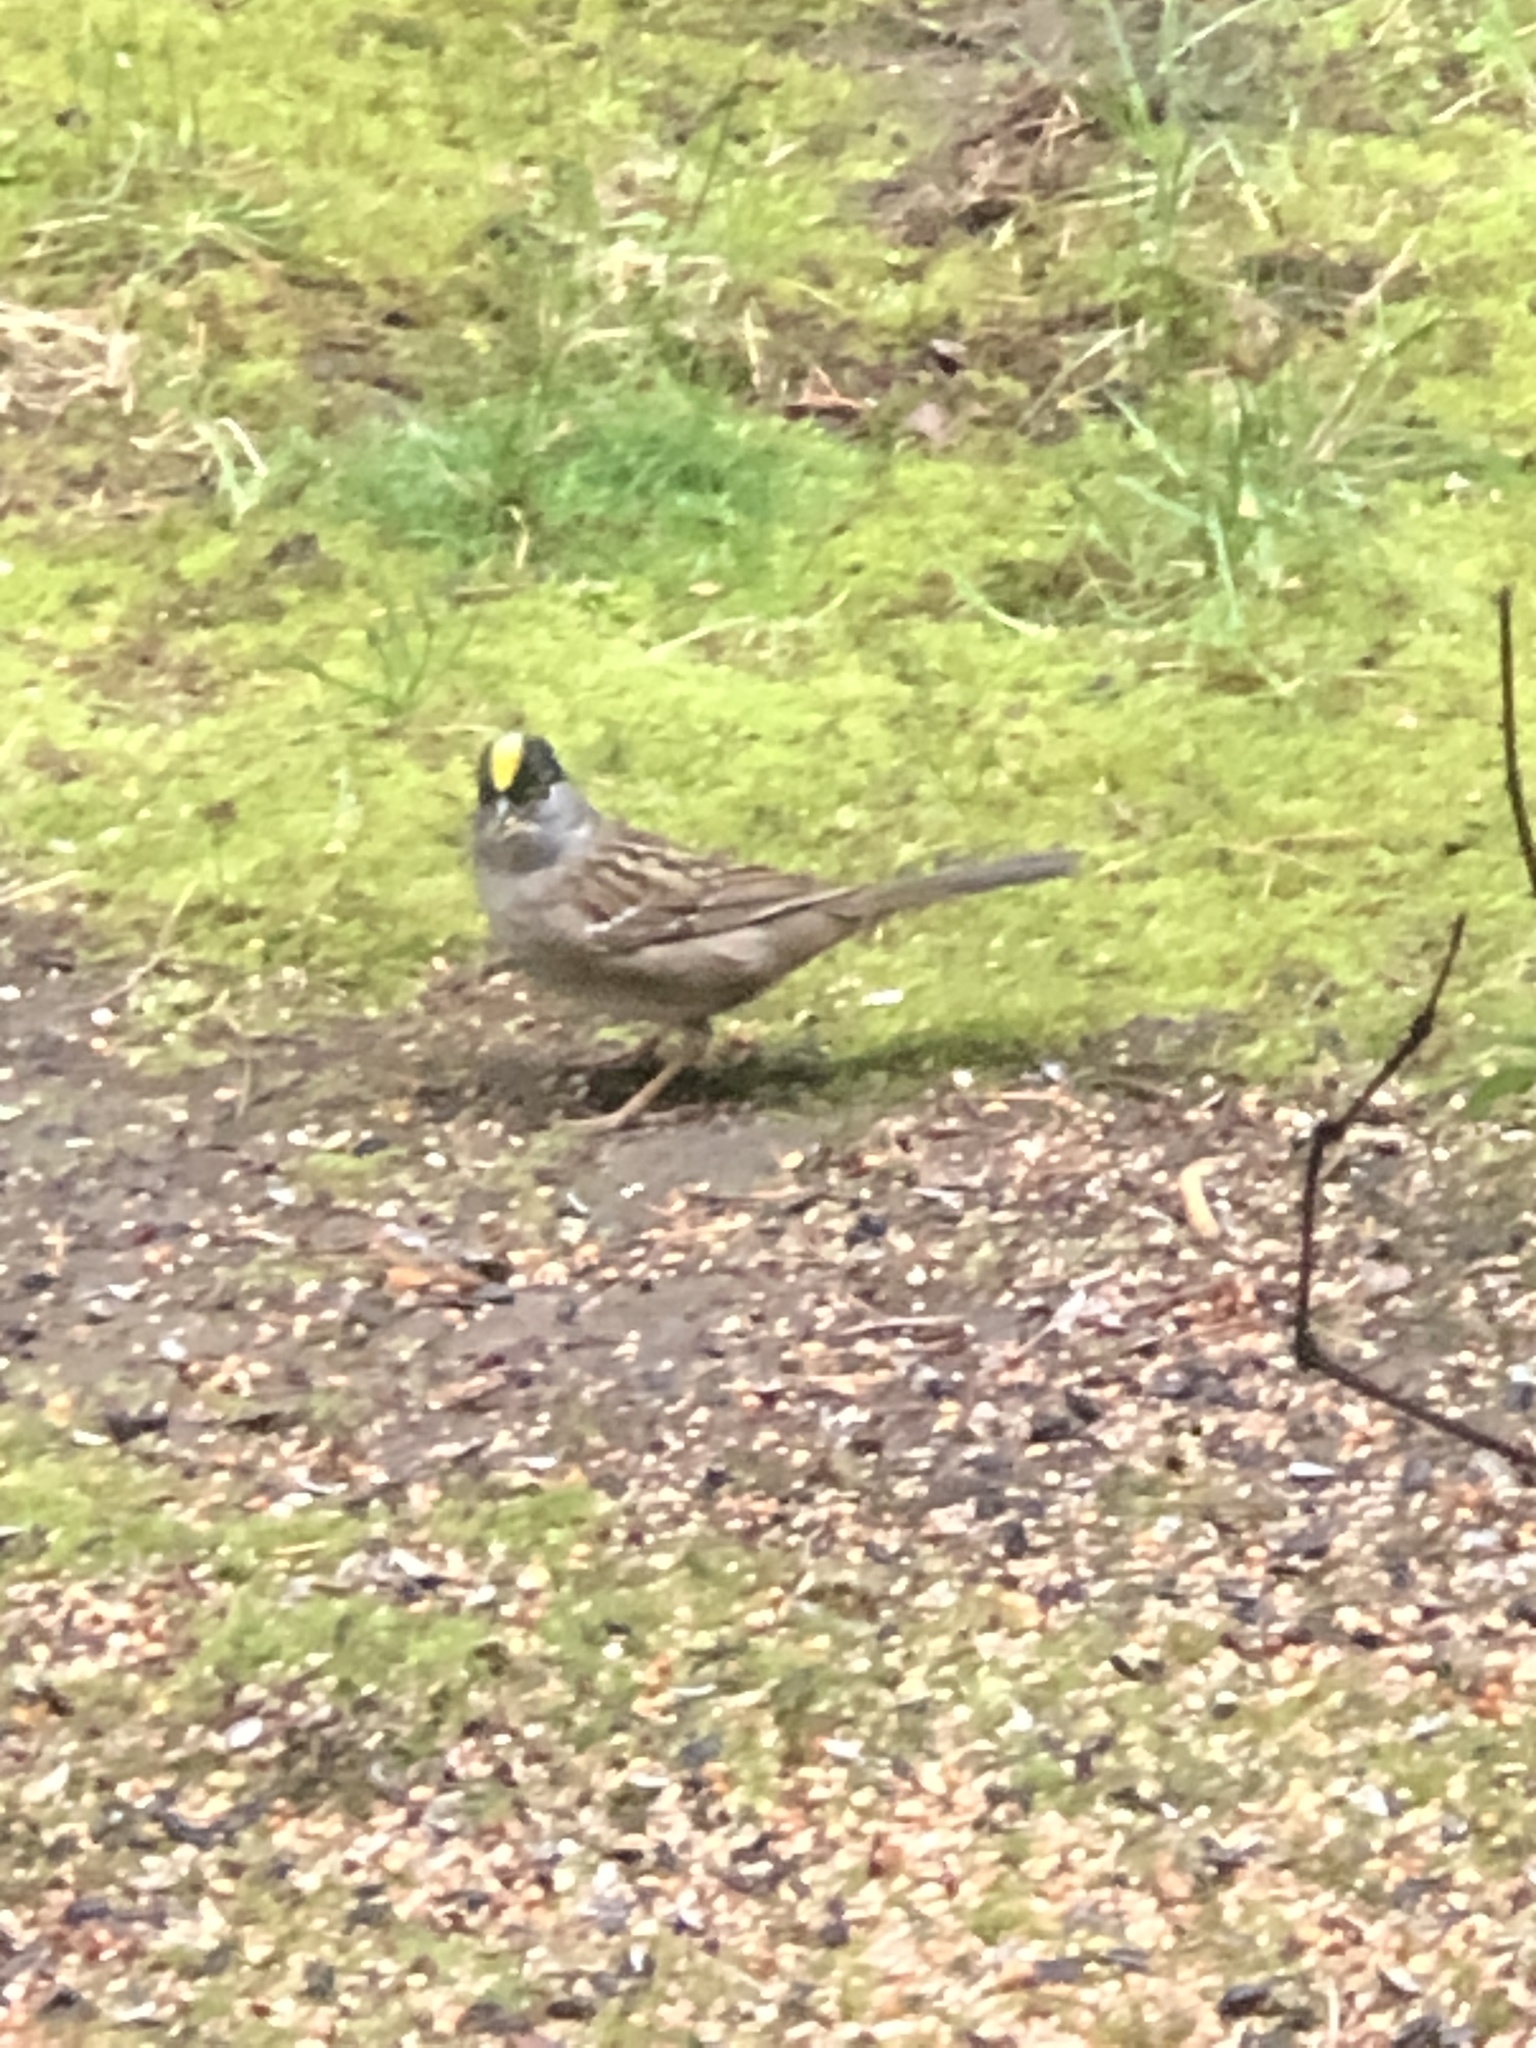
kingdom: Animalia
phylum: Chordata
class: Aves
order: Passeriformes
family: Passerellidae
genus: Zonotrichia
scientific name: Zonotrichia atricapilla
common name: Golden-crowned sparrow
